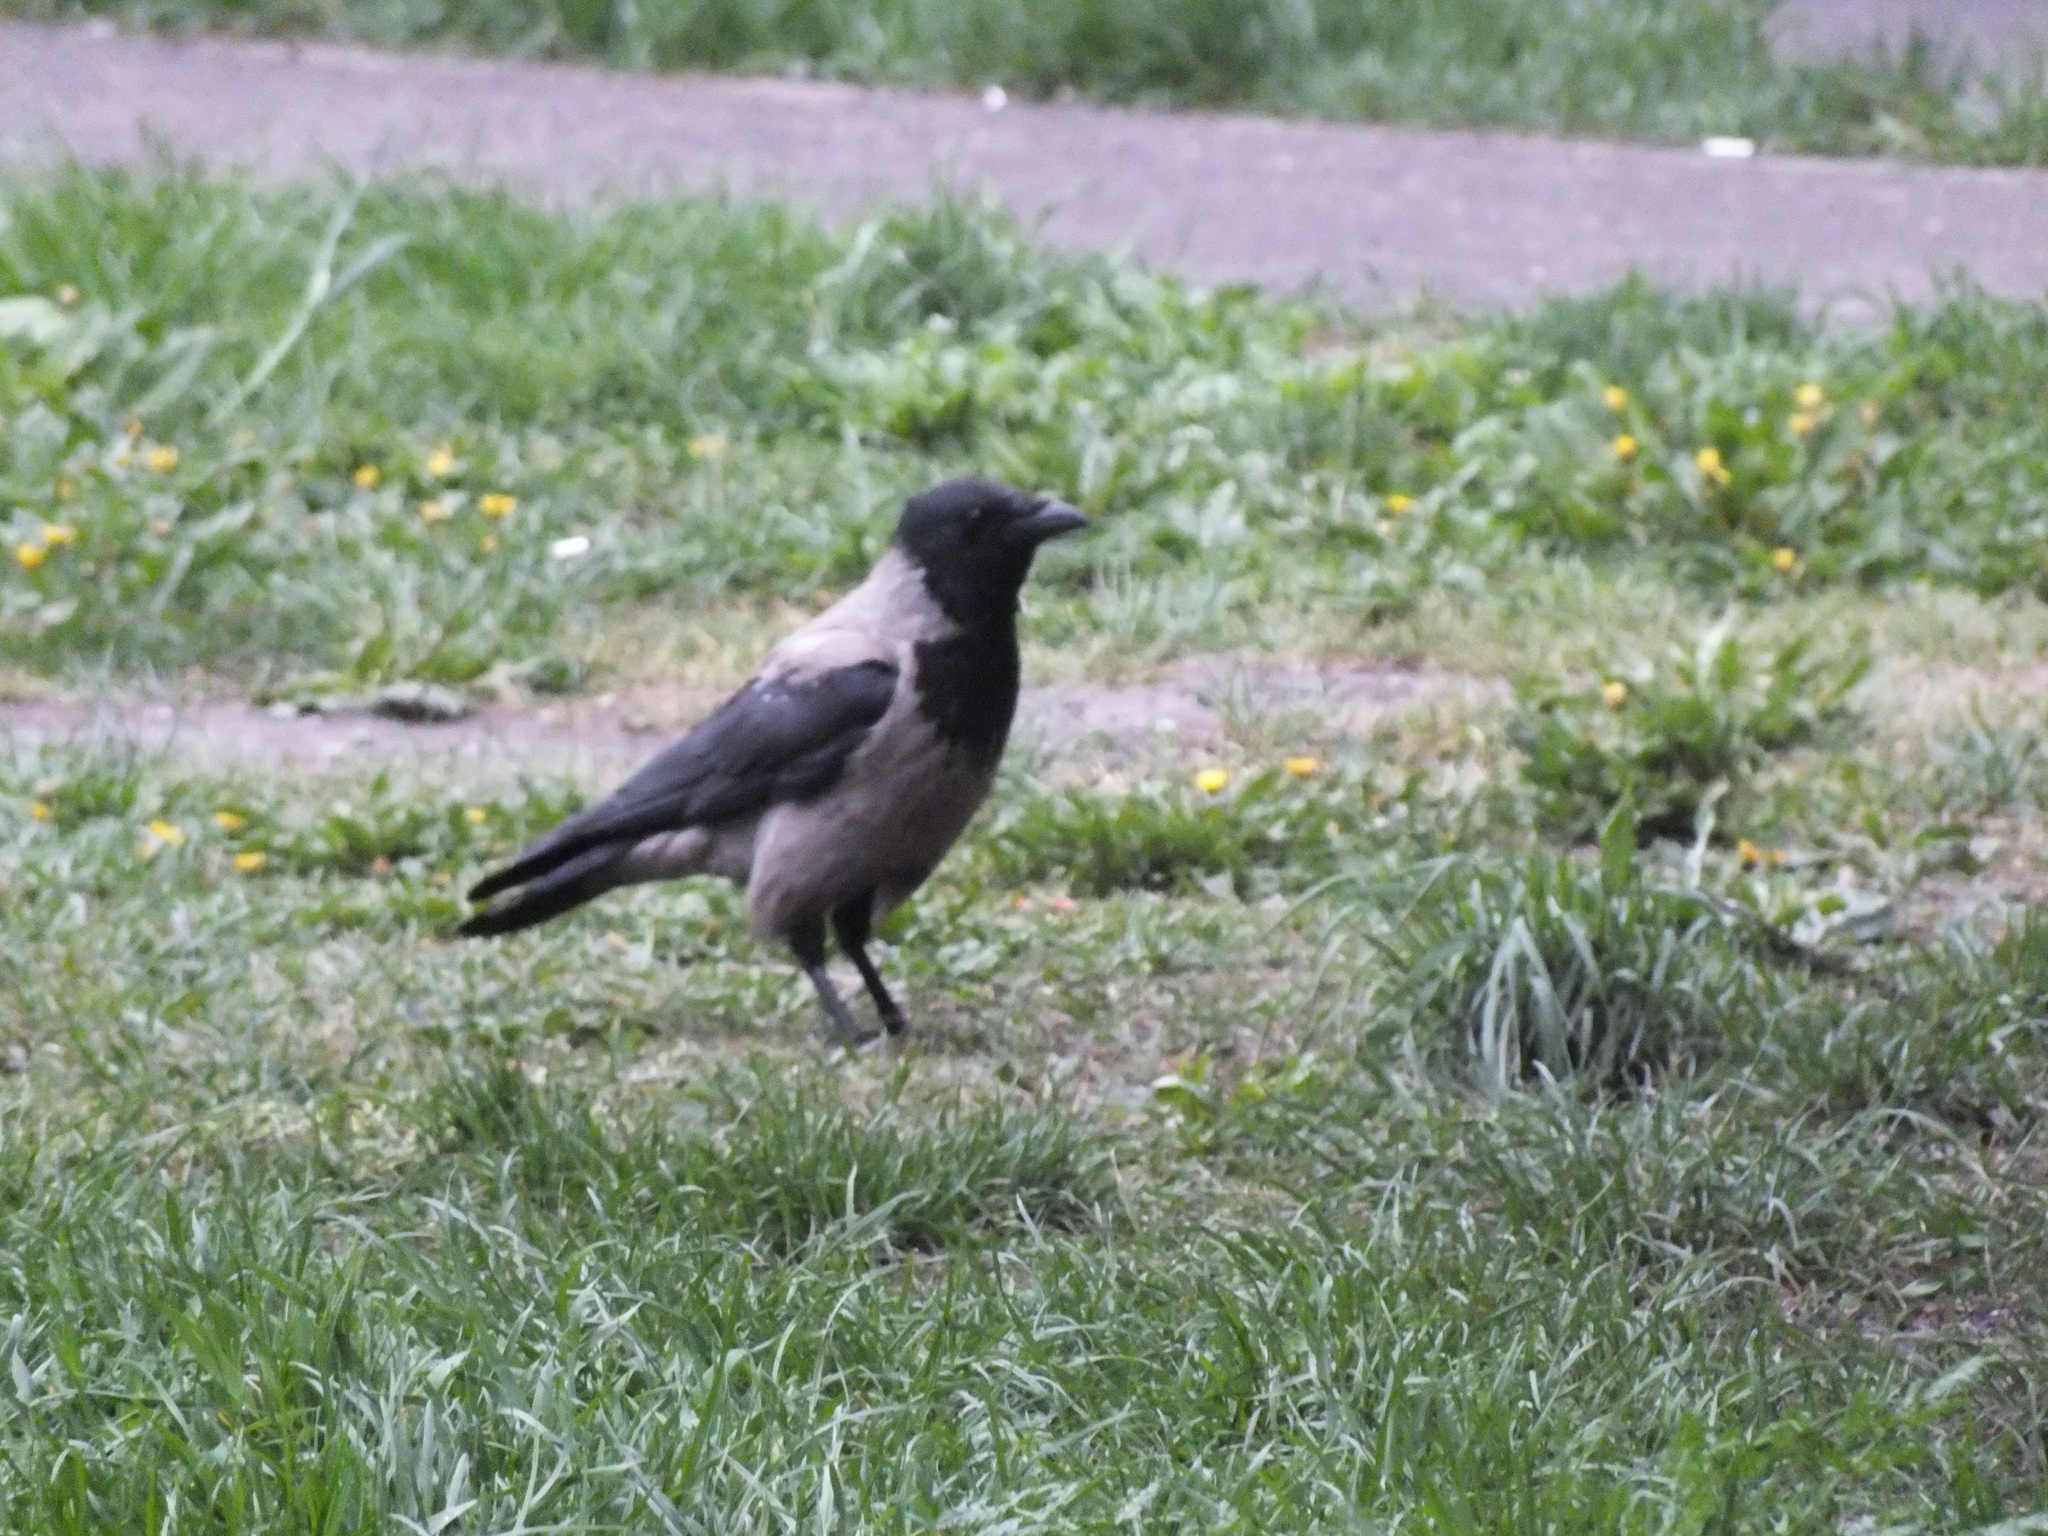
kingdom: Animalia
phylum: Chordata
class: Aves
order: Passeriformes
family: Corvidae
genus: Corvus
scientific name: Corvus cornix
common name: Hooded crow
